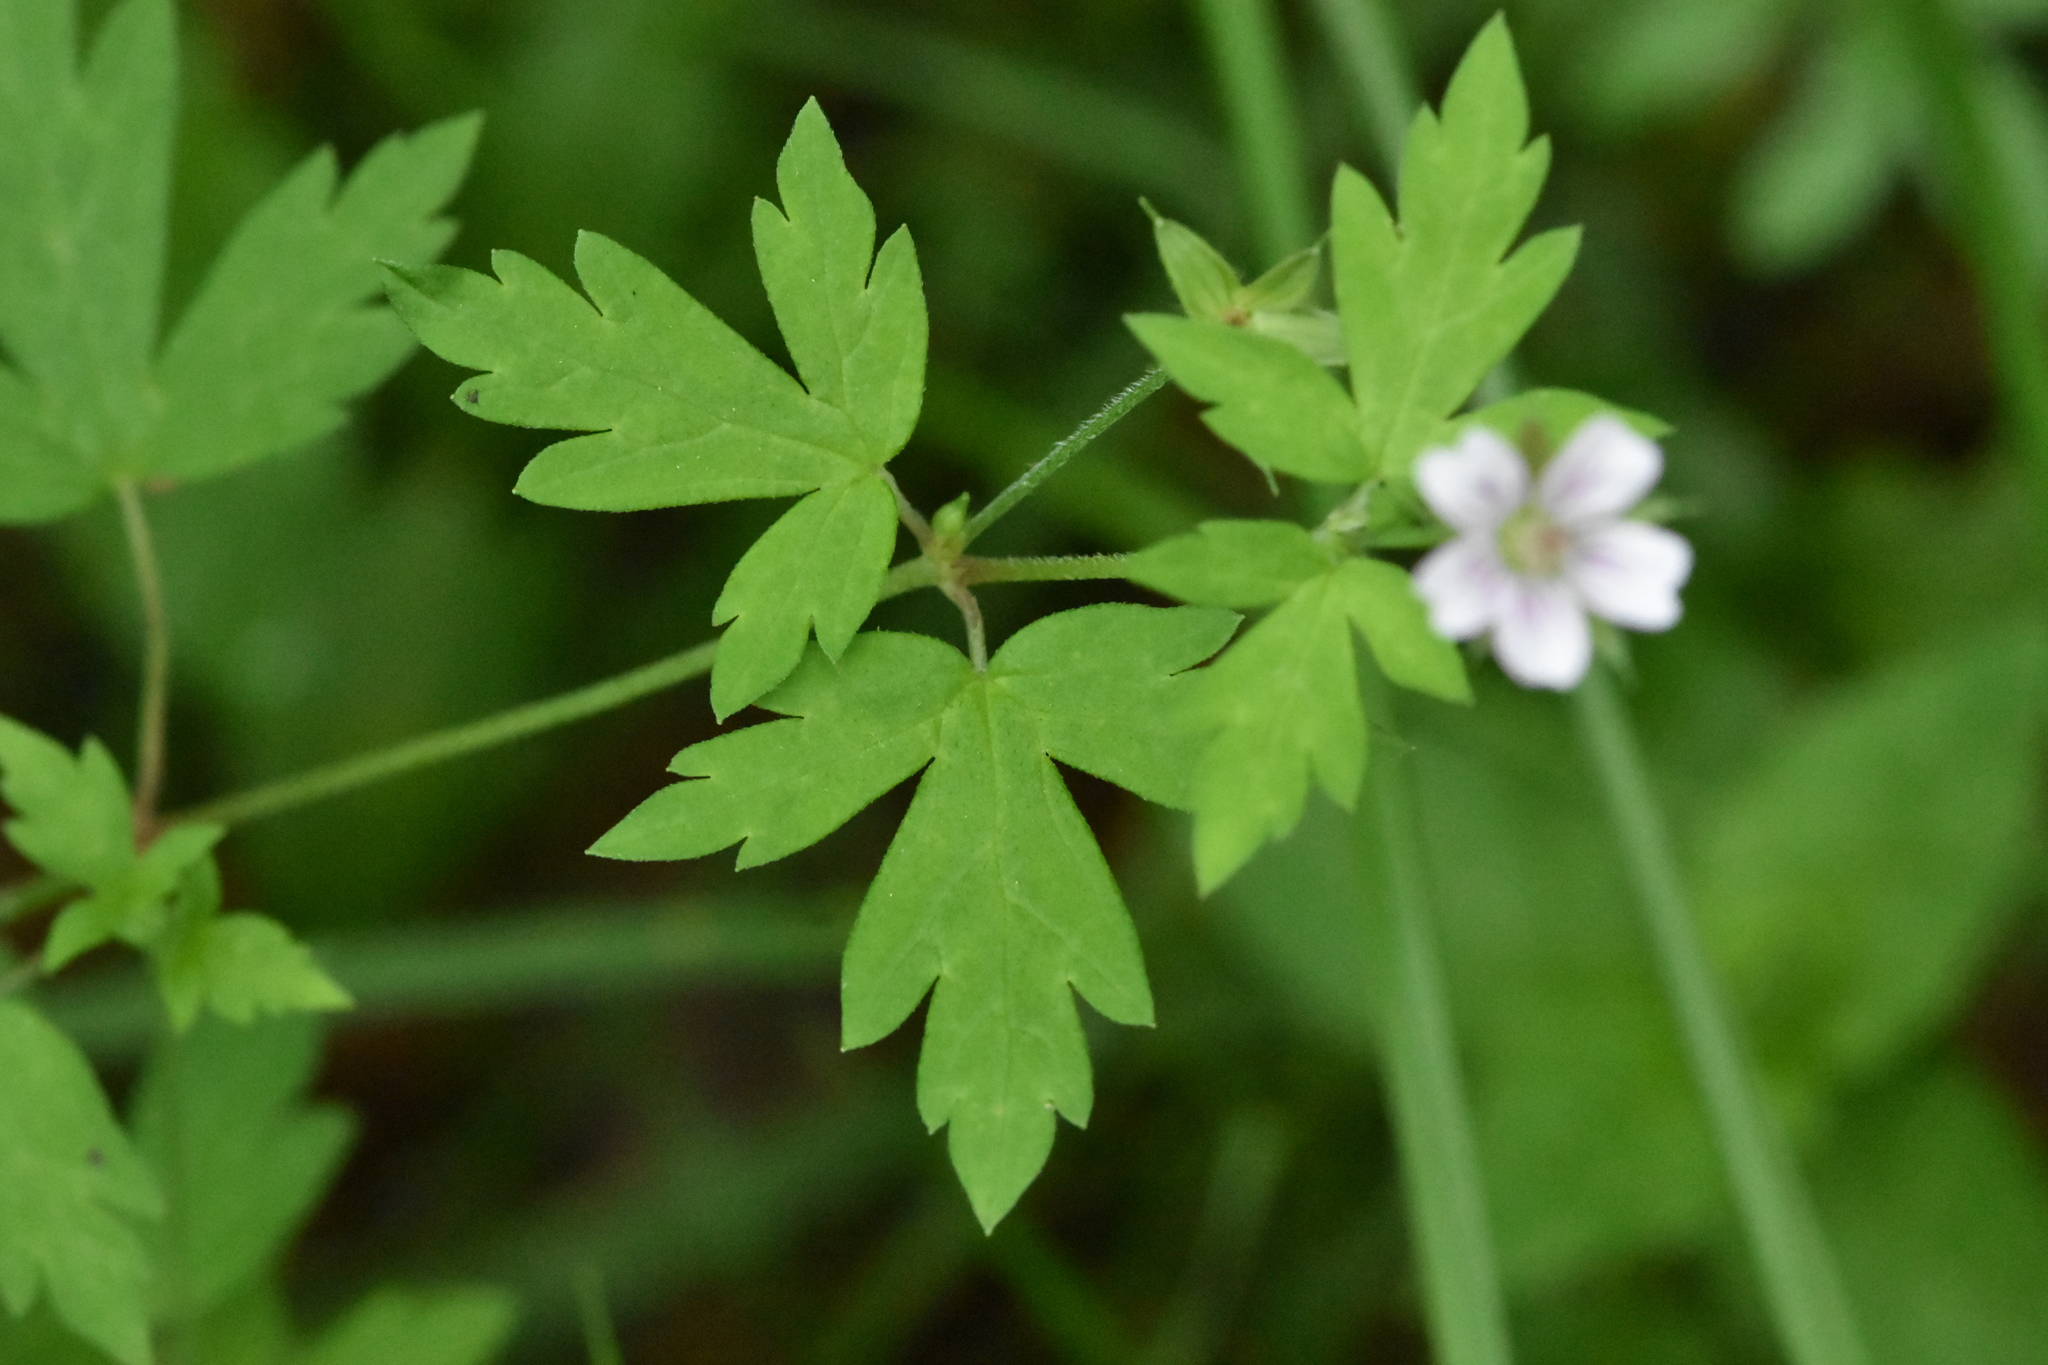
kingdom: Plantae
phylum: Tracheophyta
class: Magnoliopsida
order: Geraniales
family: Geraniaceae
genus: Geranium
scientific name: Geranium sibiricum
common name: Siberian crane's-bill
